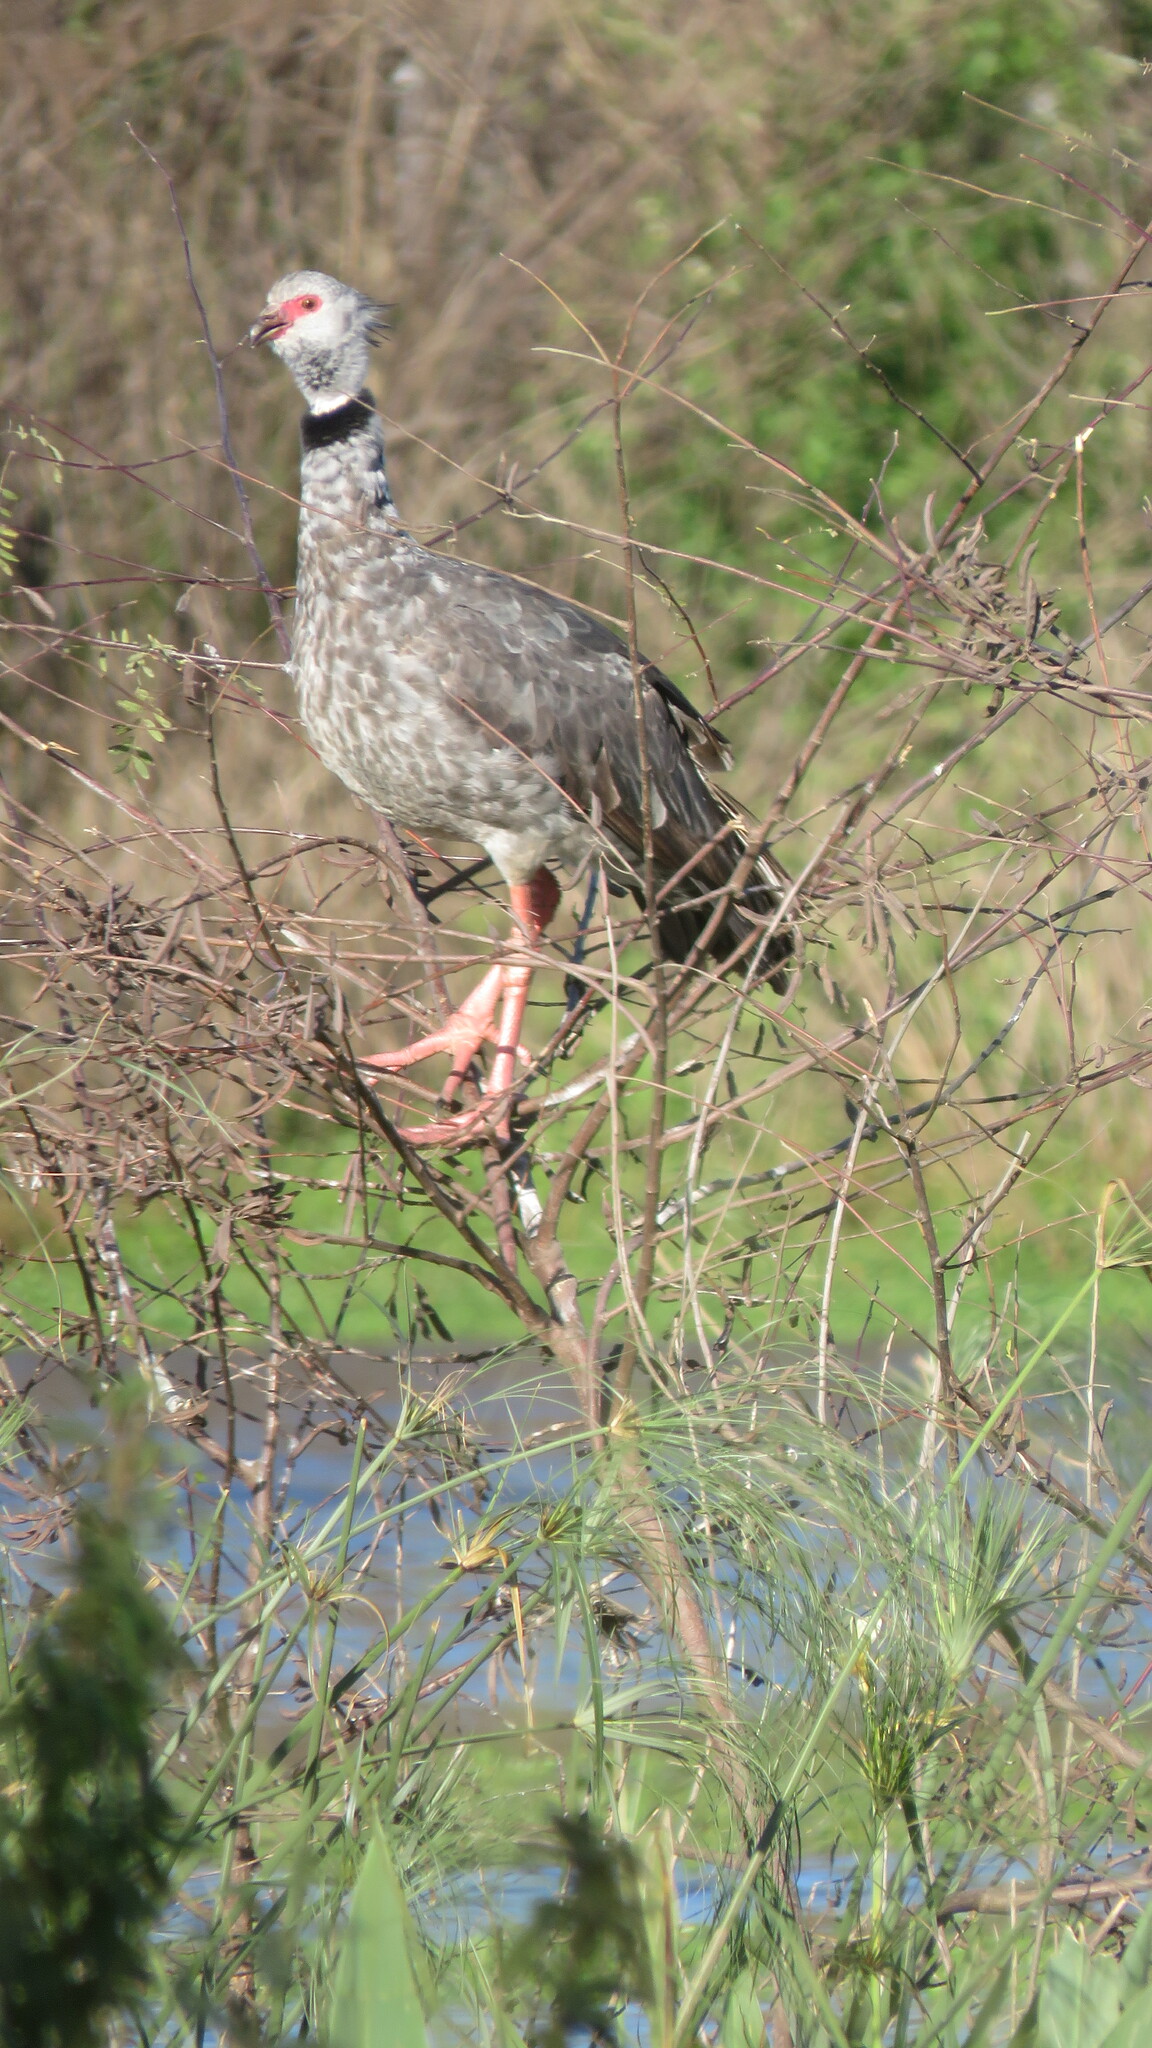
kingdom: Animalia
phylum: Chordata
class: Aves
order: Anseriformes
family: Anhimidae
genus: Chauna
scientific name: Chauna torquata
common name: Southern screamer
